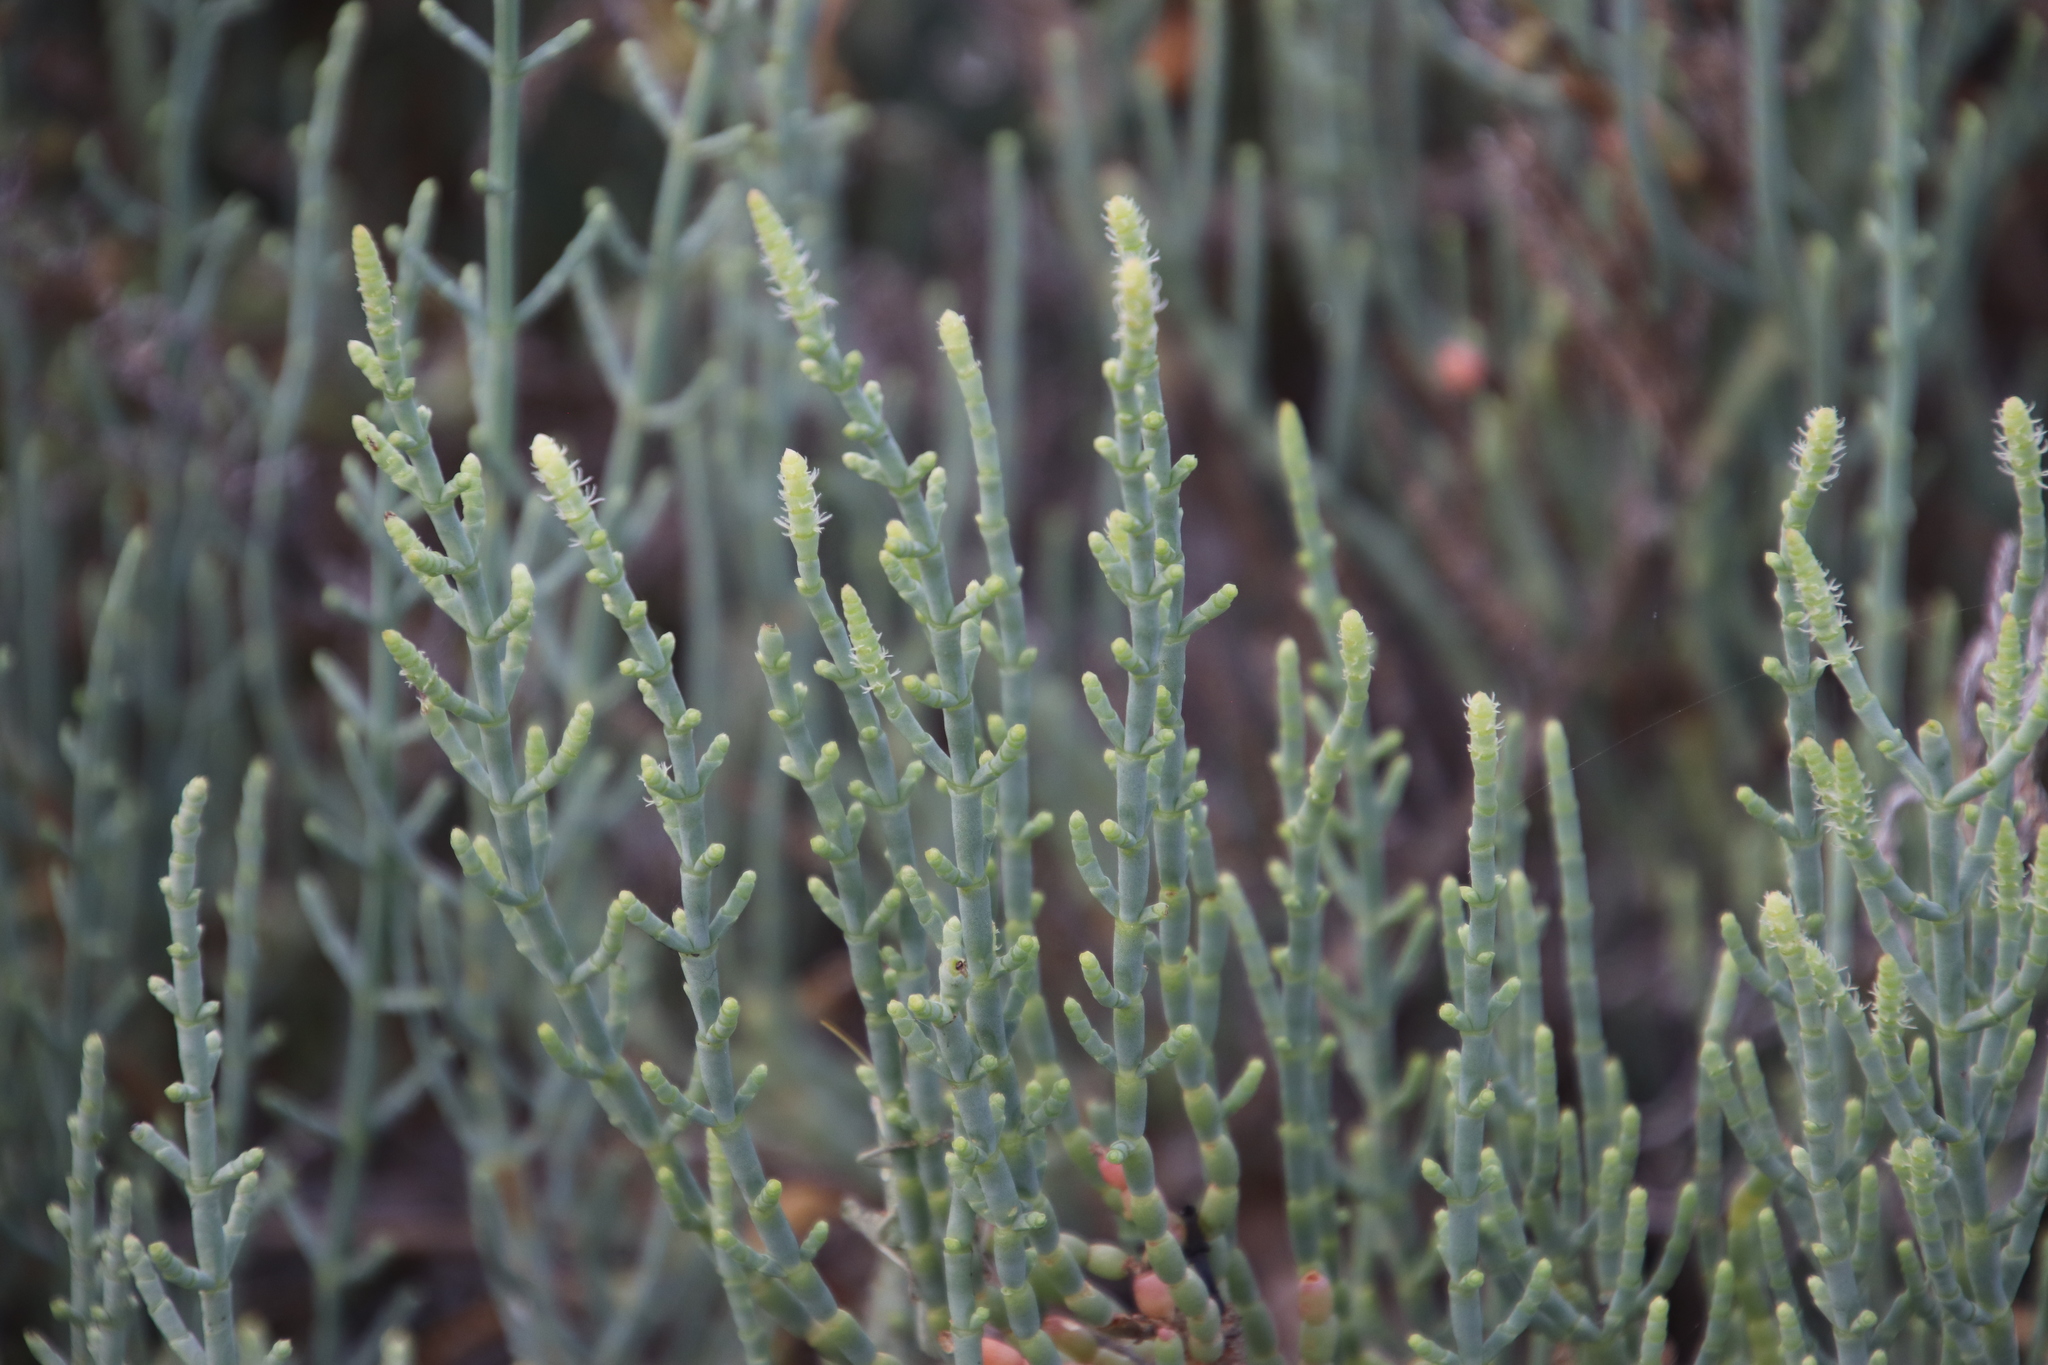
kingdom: Plantae
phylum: Tracheophyta
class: Magnoliopsida
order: Caryophyllales
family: Amaranthaceae
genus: Arthroceras
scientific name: Arthroceras subterminale
